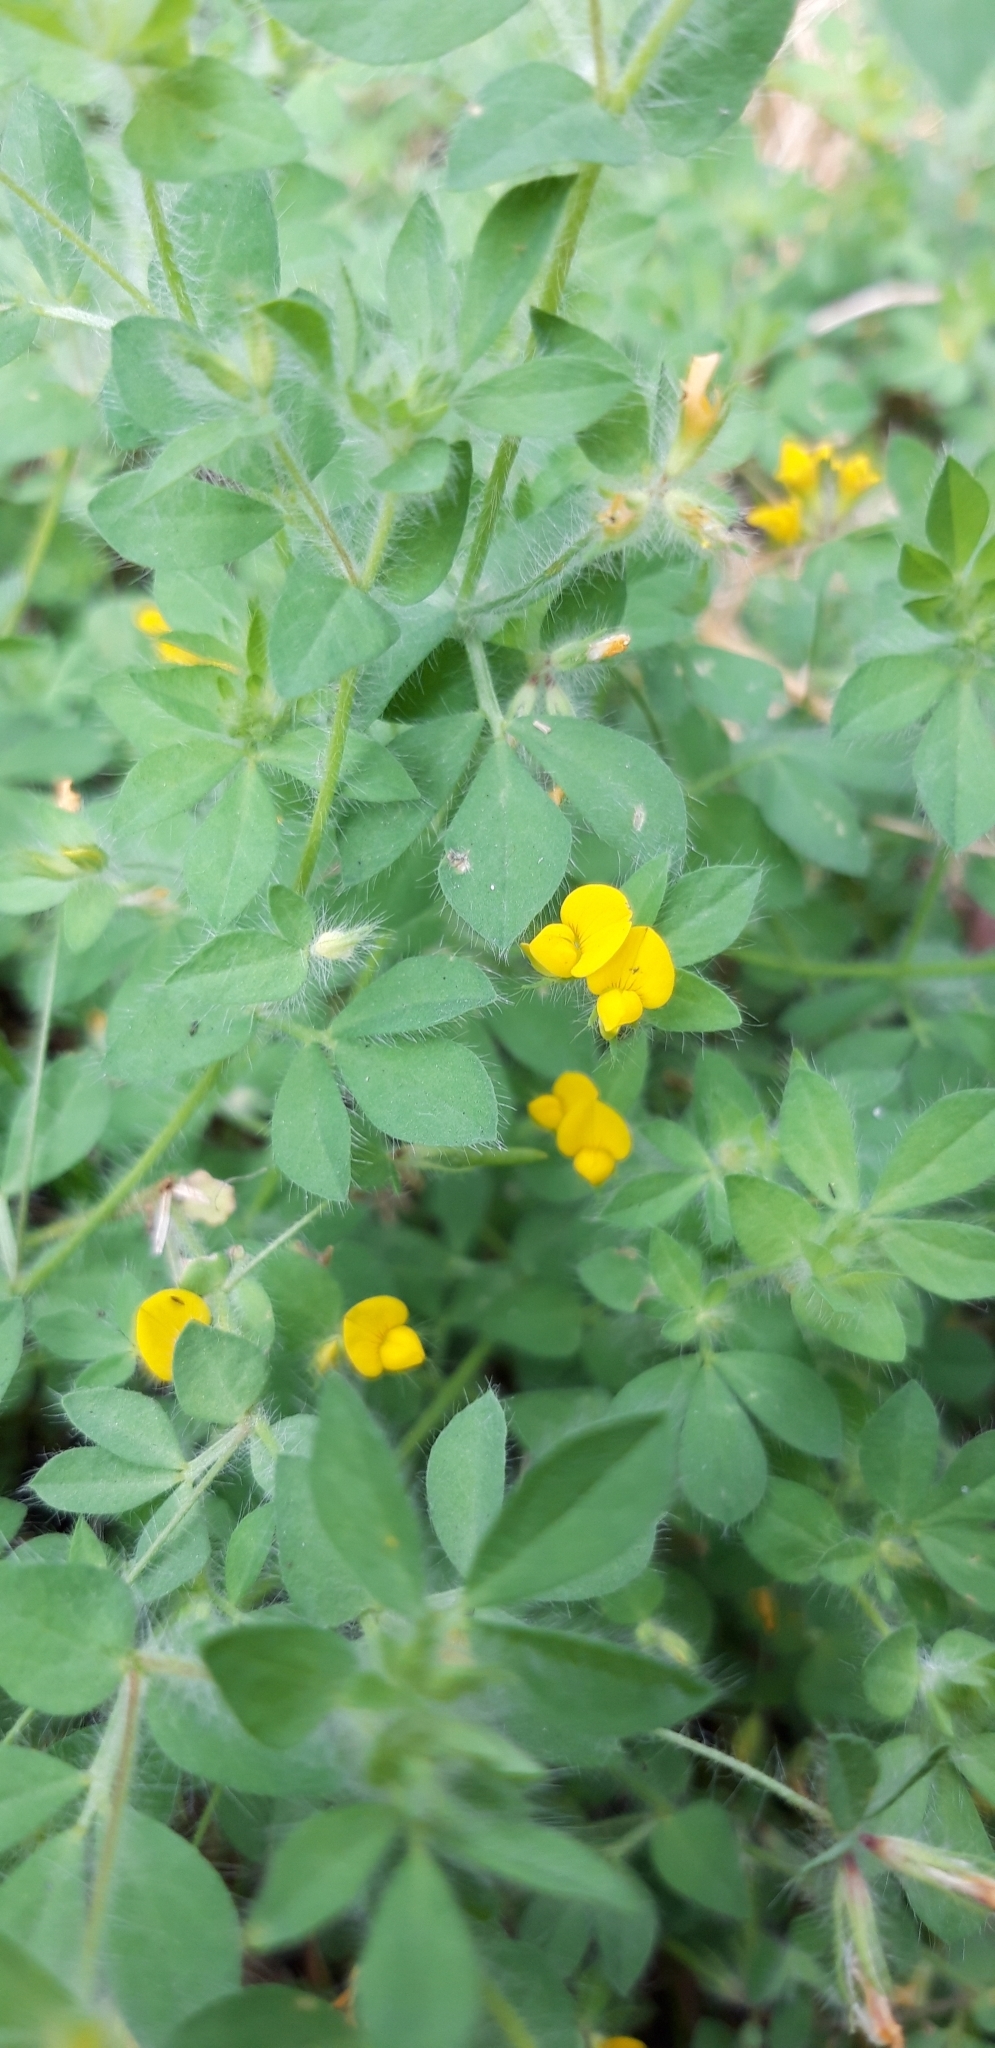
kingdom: Plantae
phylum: Tracheophyta
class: Magnoliopsida
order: Fabales
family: Fabaceae
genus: Lotus
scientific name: Lotus subbiflorus
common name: Hairy bird's-foot trefoil
